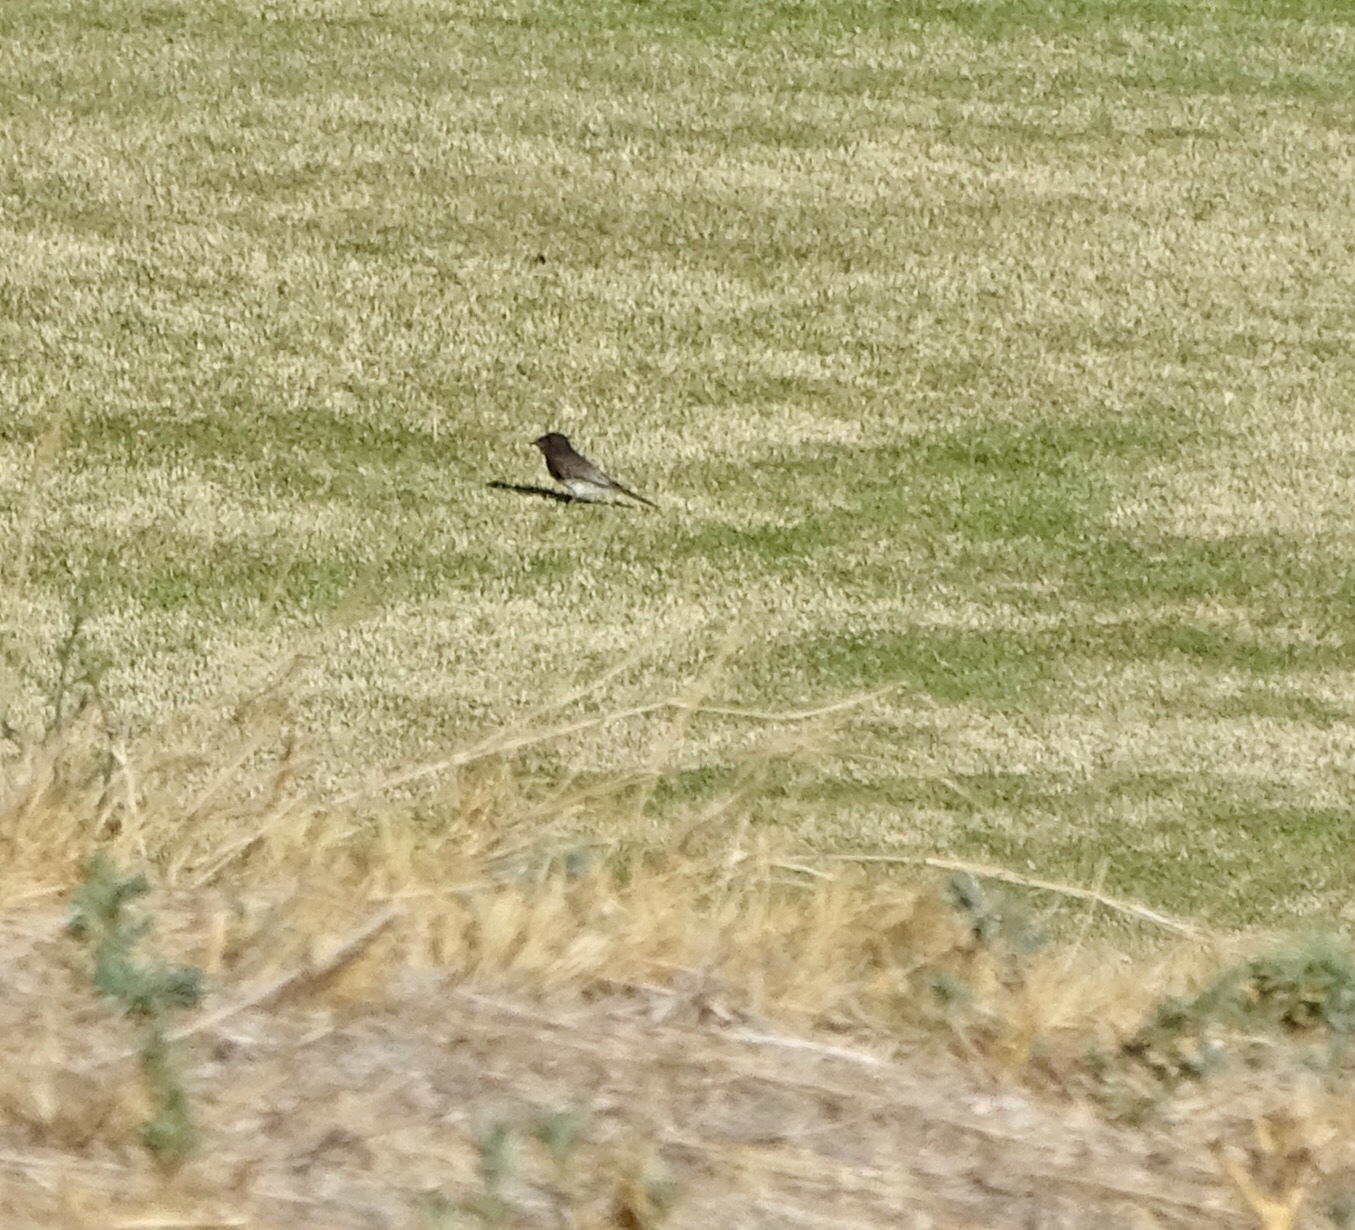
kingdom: Animalia
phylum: Chordata
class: Aves
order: Passeriformes
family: Tyrannidae
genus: Sayornis
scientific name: Sayornis nigricans
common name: Black phoebe
